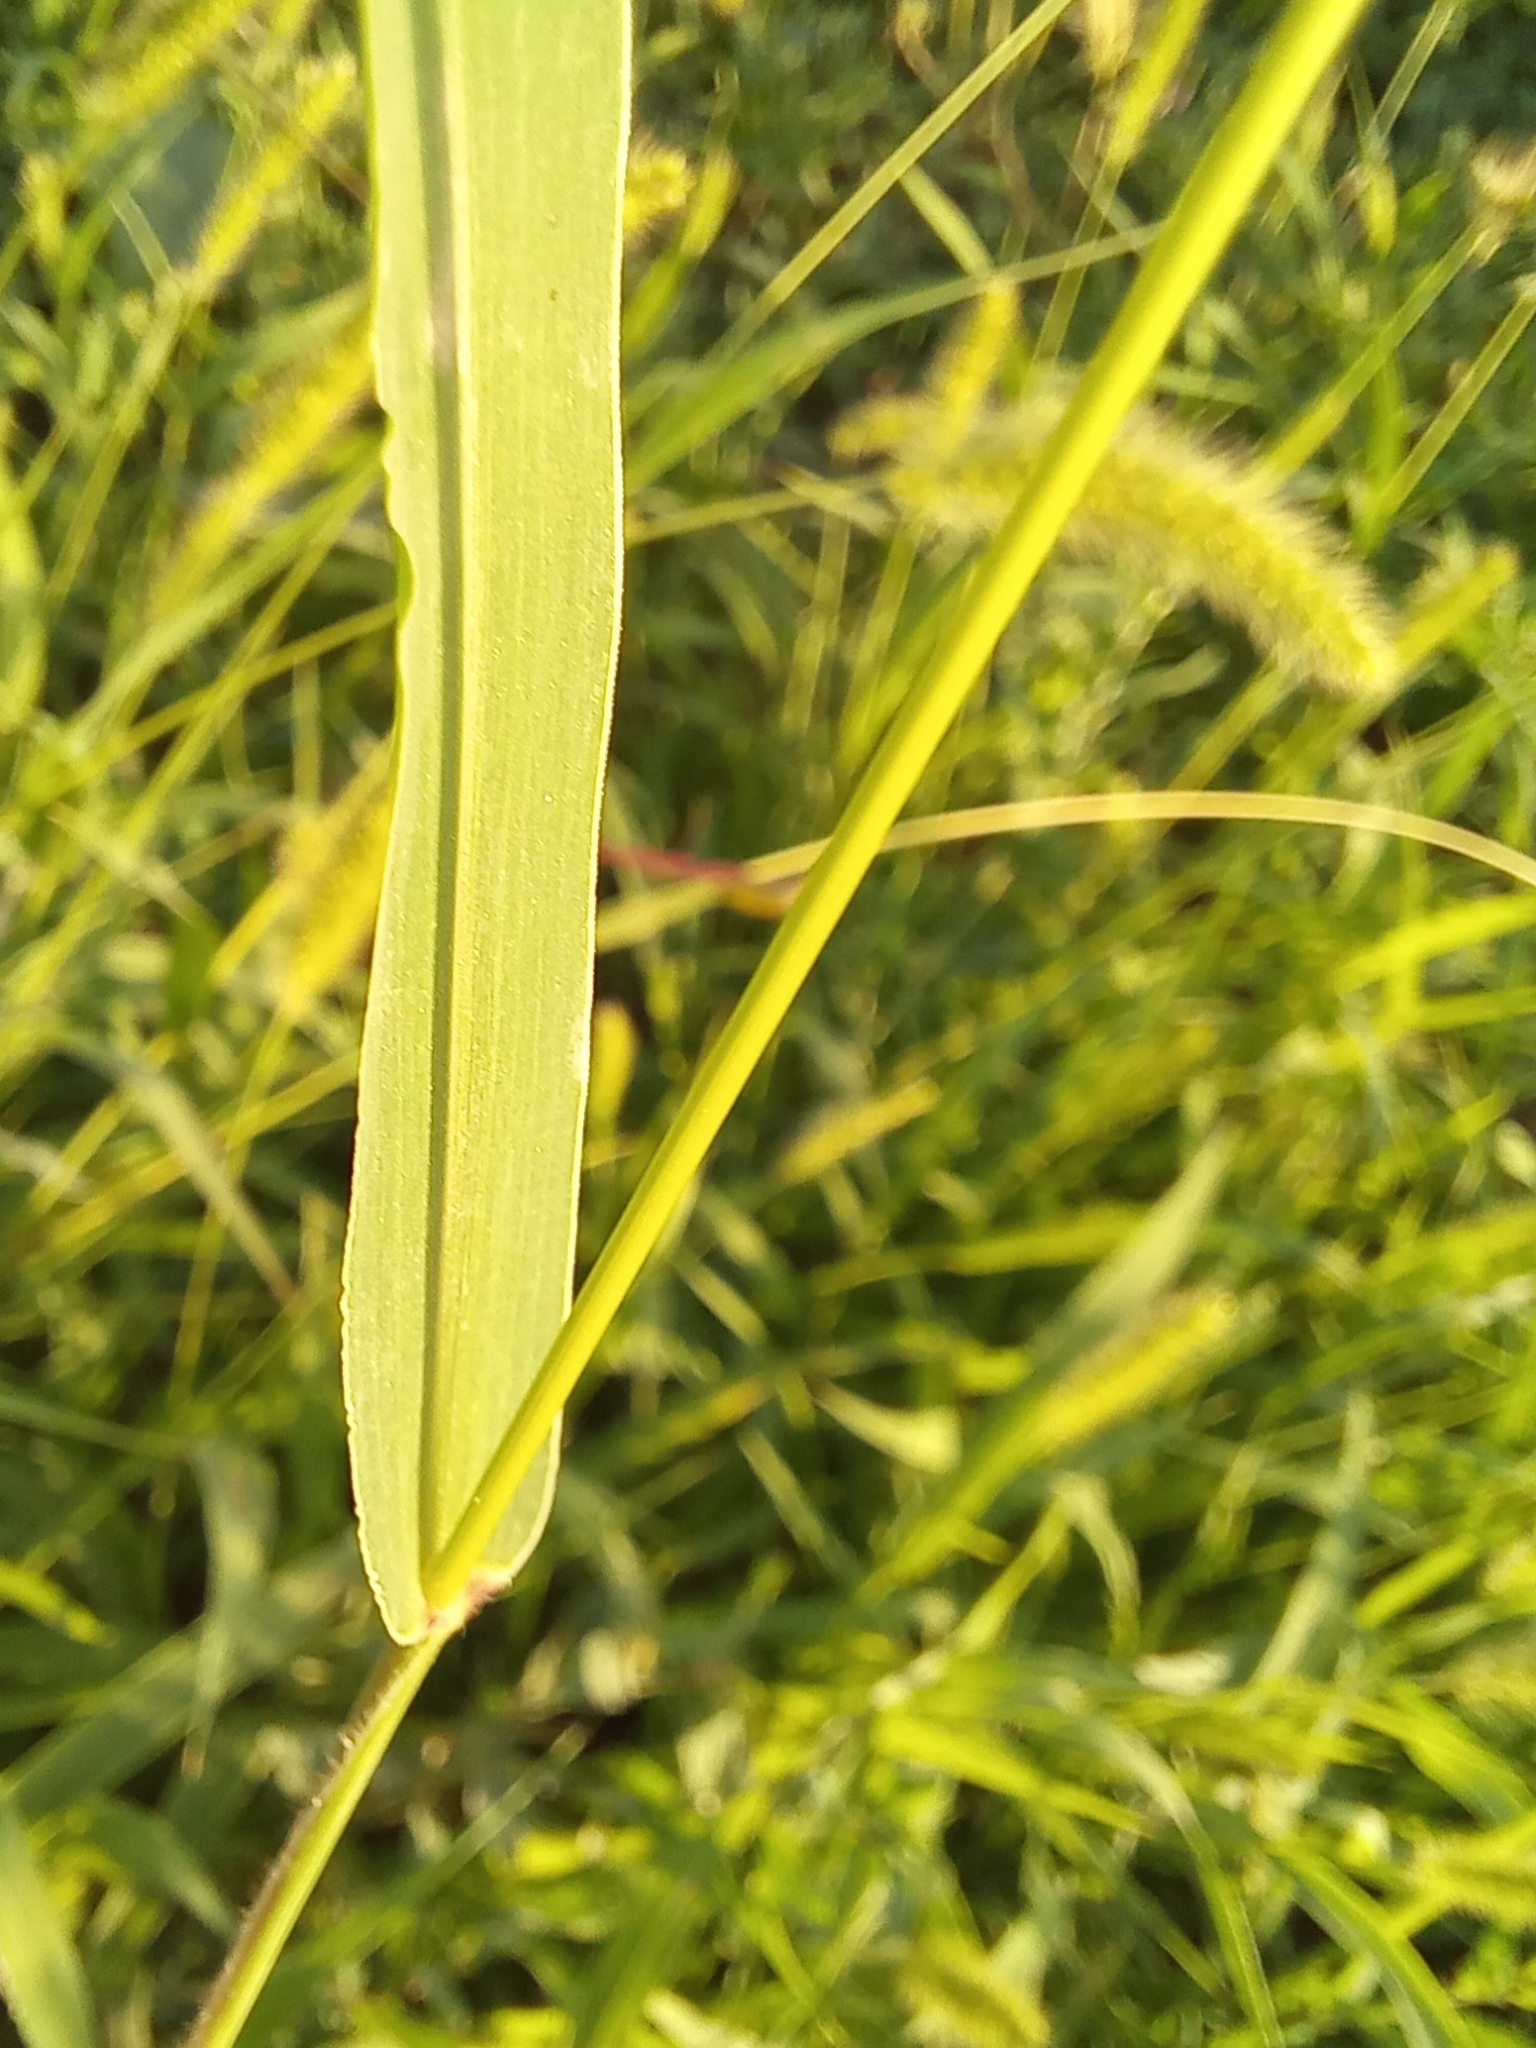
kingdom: Plantae
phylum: Tracheophyta
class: Liliopsida
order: Poales
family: Poaceae
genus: Setaria
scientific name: Setaria viridis
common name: Green bristlegrass
